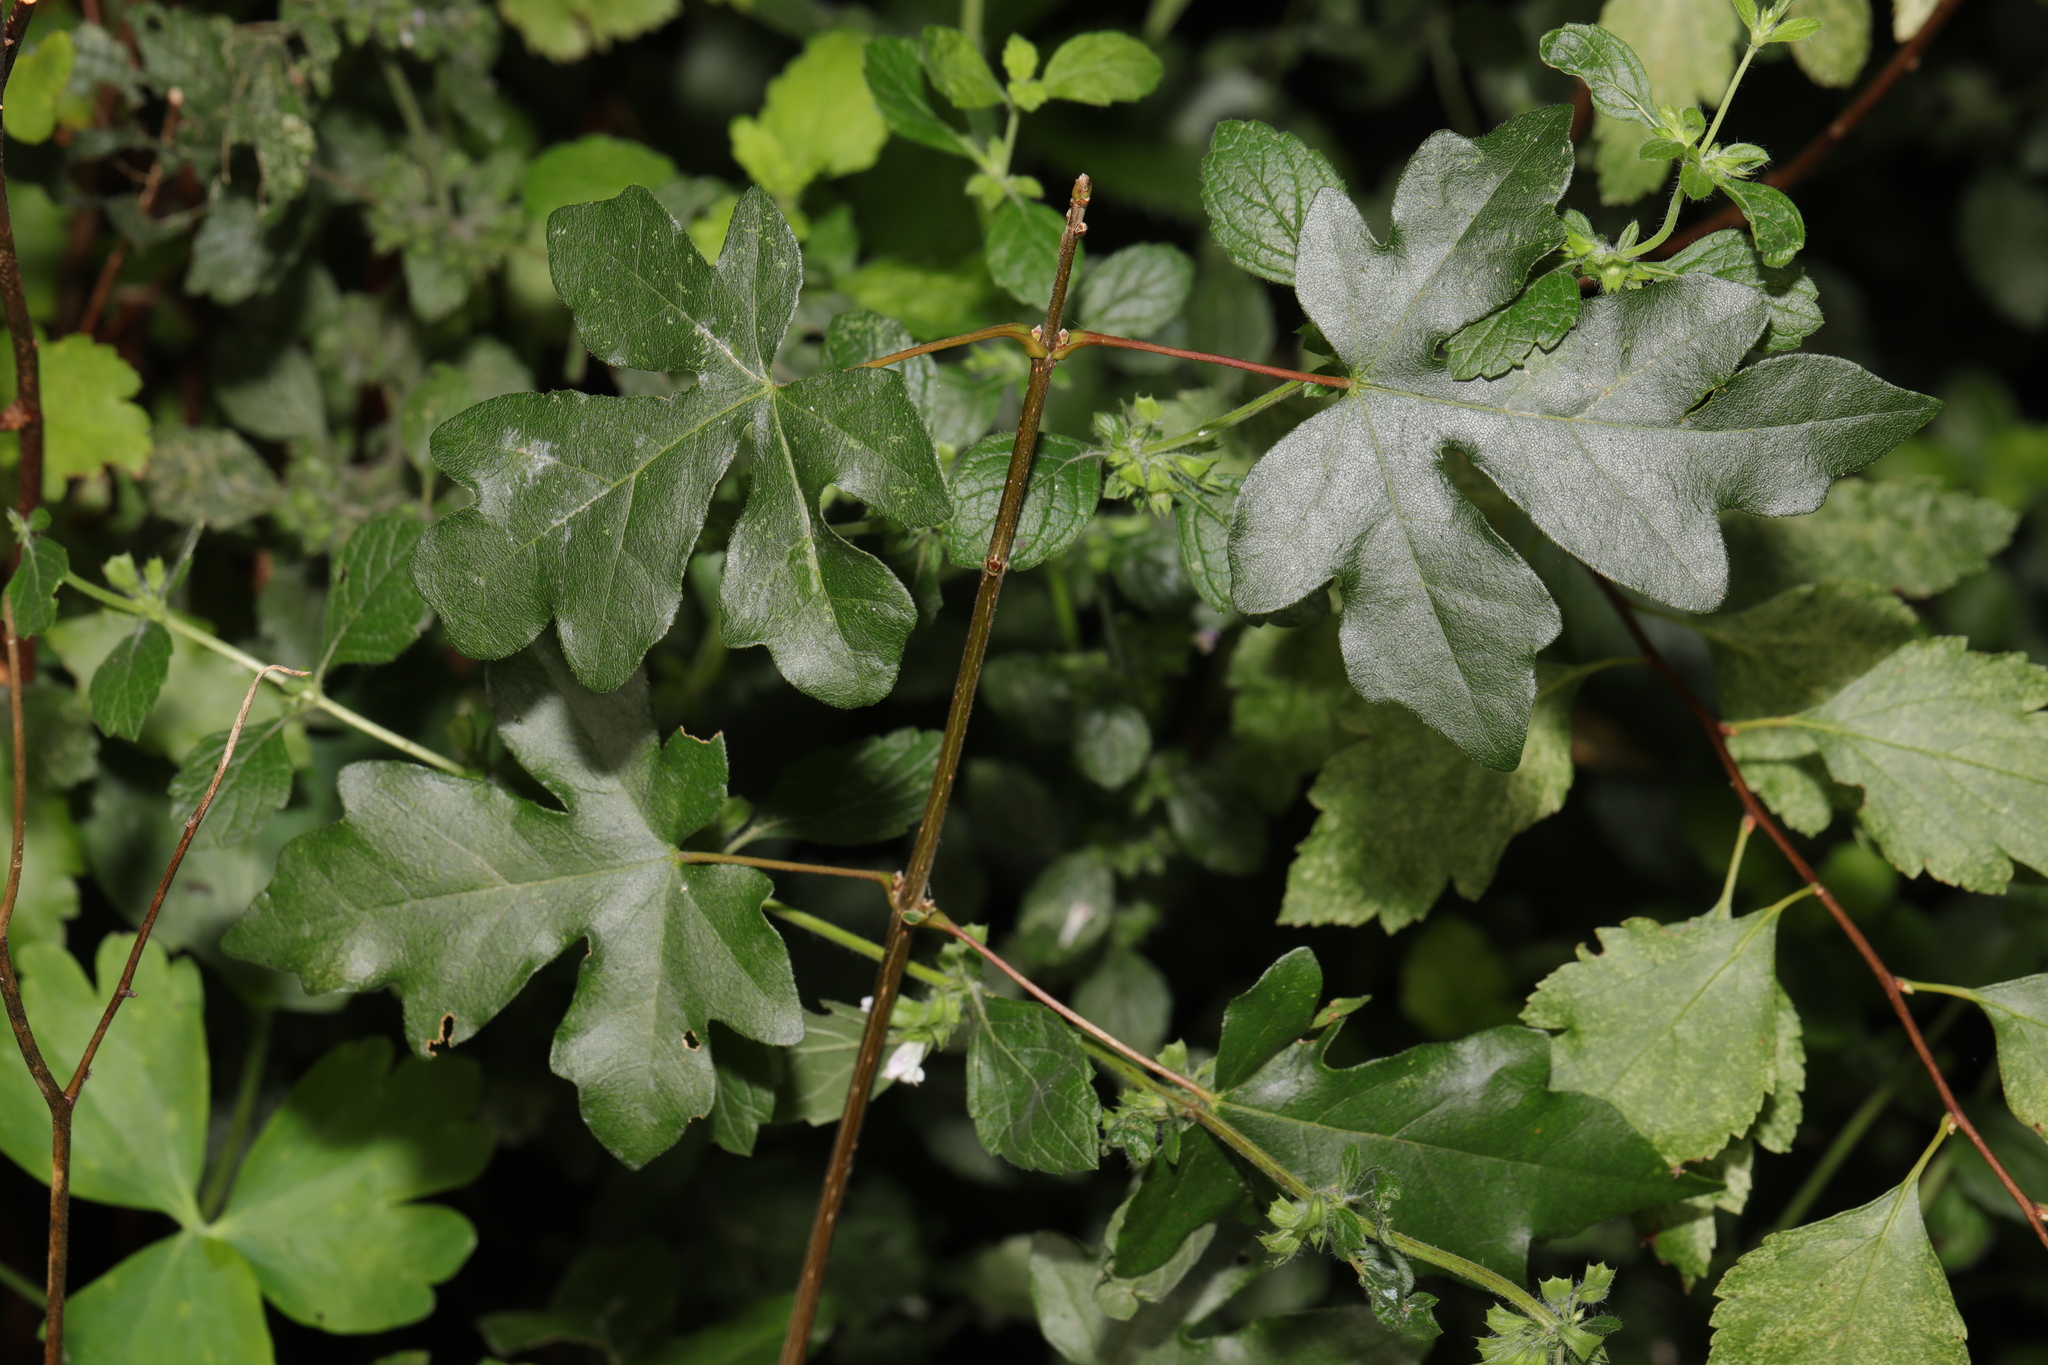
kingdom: Plantae
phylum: Tracheophyta
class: Magnoliopsida
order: Sapindales
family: Sapindaceae
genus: Acer
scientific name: Acer campestre
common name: Field maple
